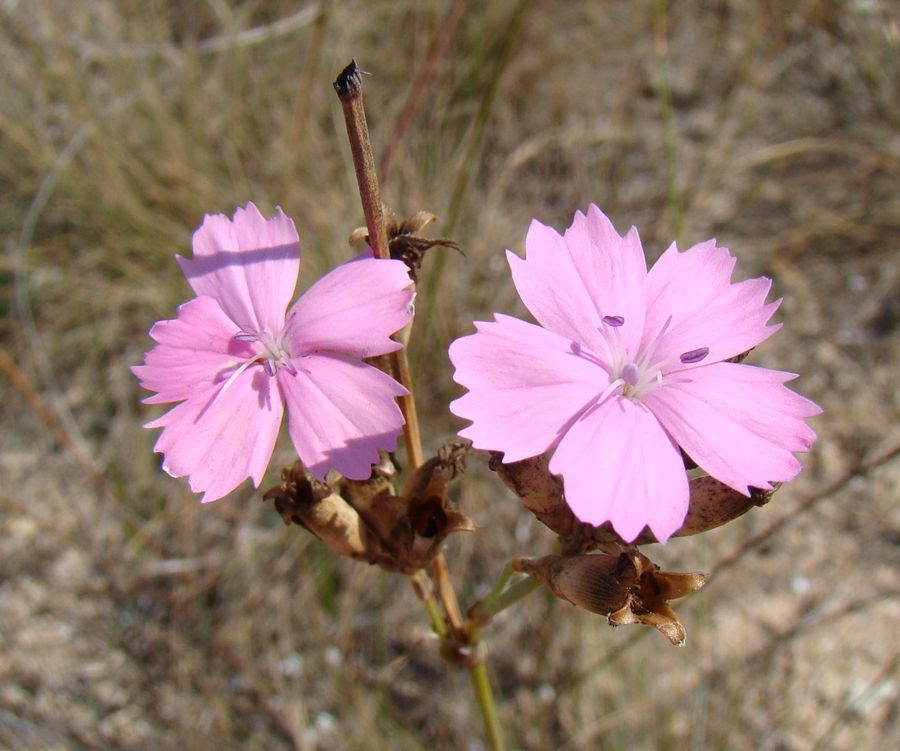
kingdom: Plantae
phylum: Tracheophyta
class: Magnoliopsida
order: Caryophyllales
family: Caryophyllaceae
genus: Dianthus
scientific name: Dianthus polymorphus
